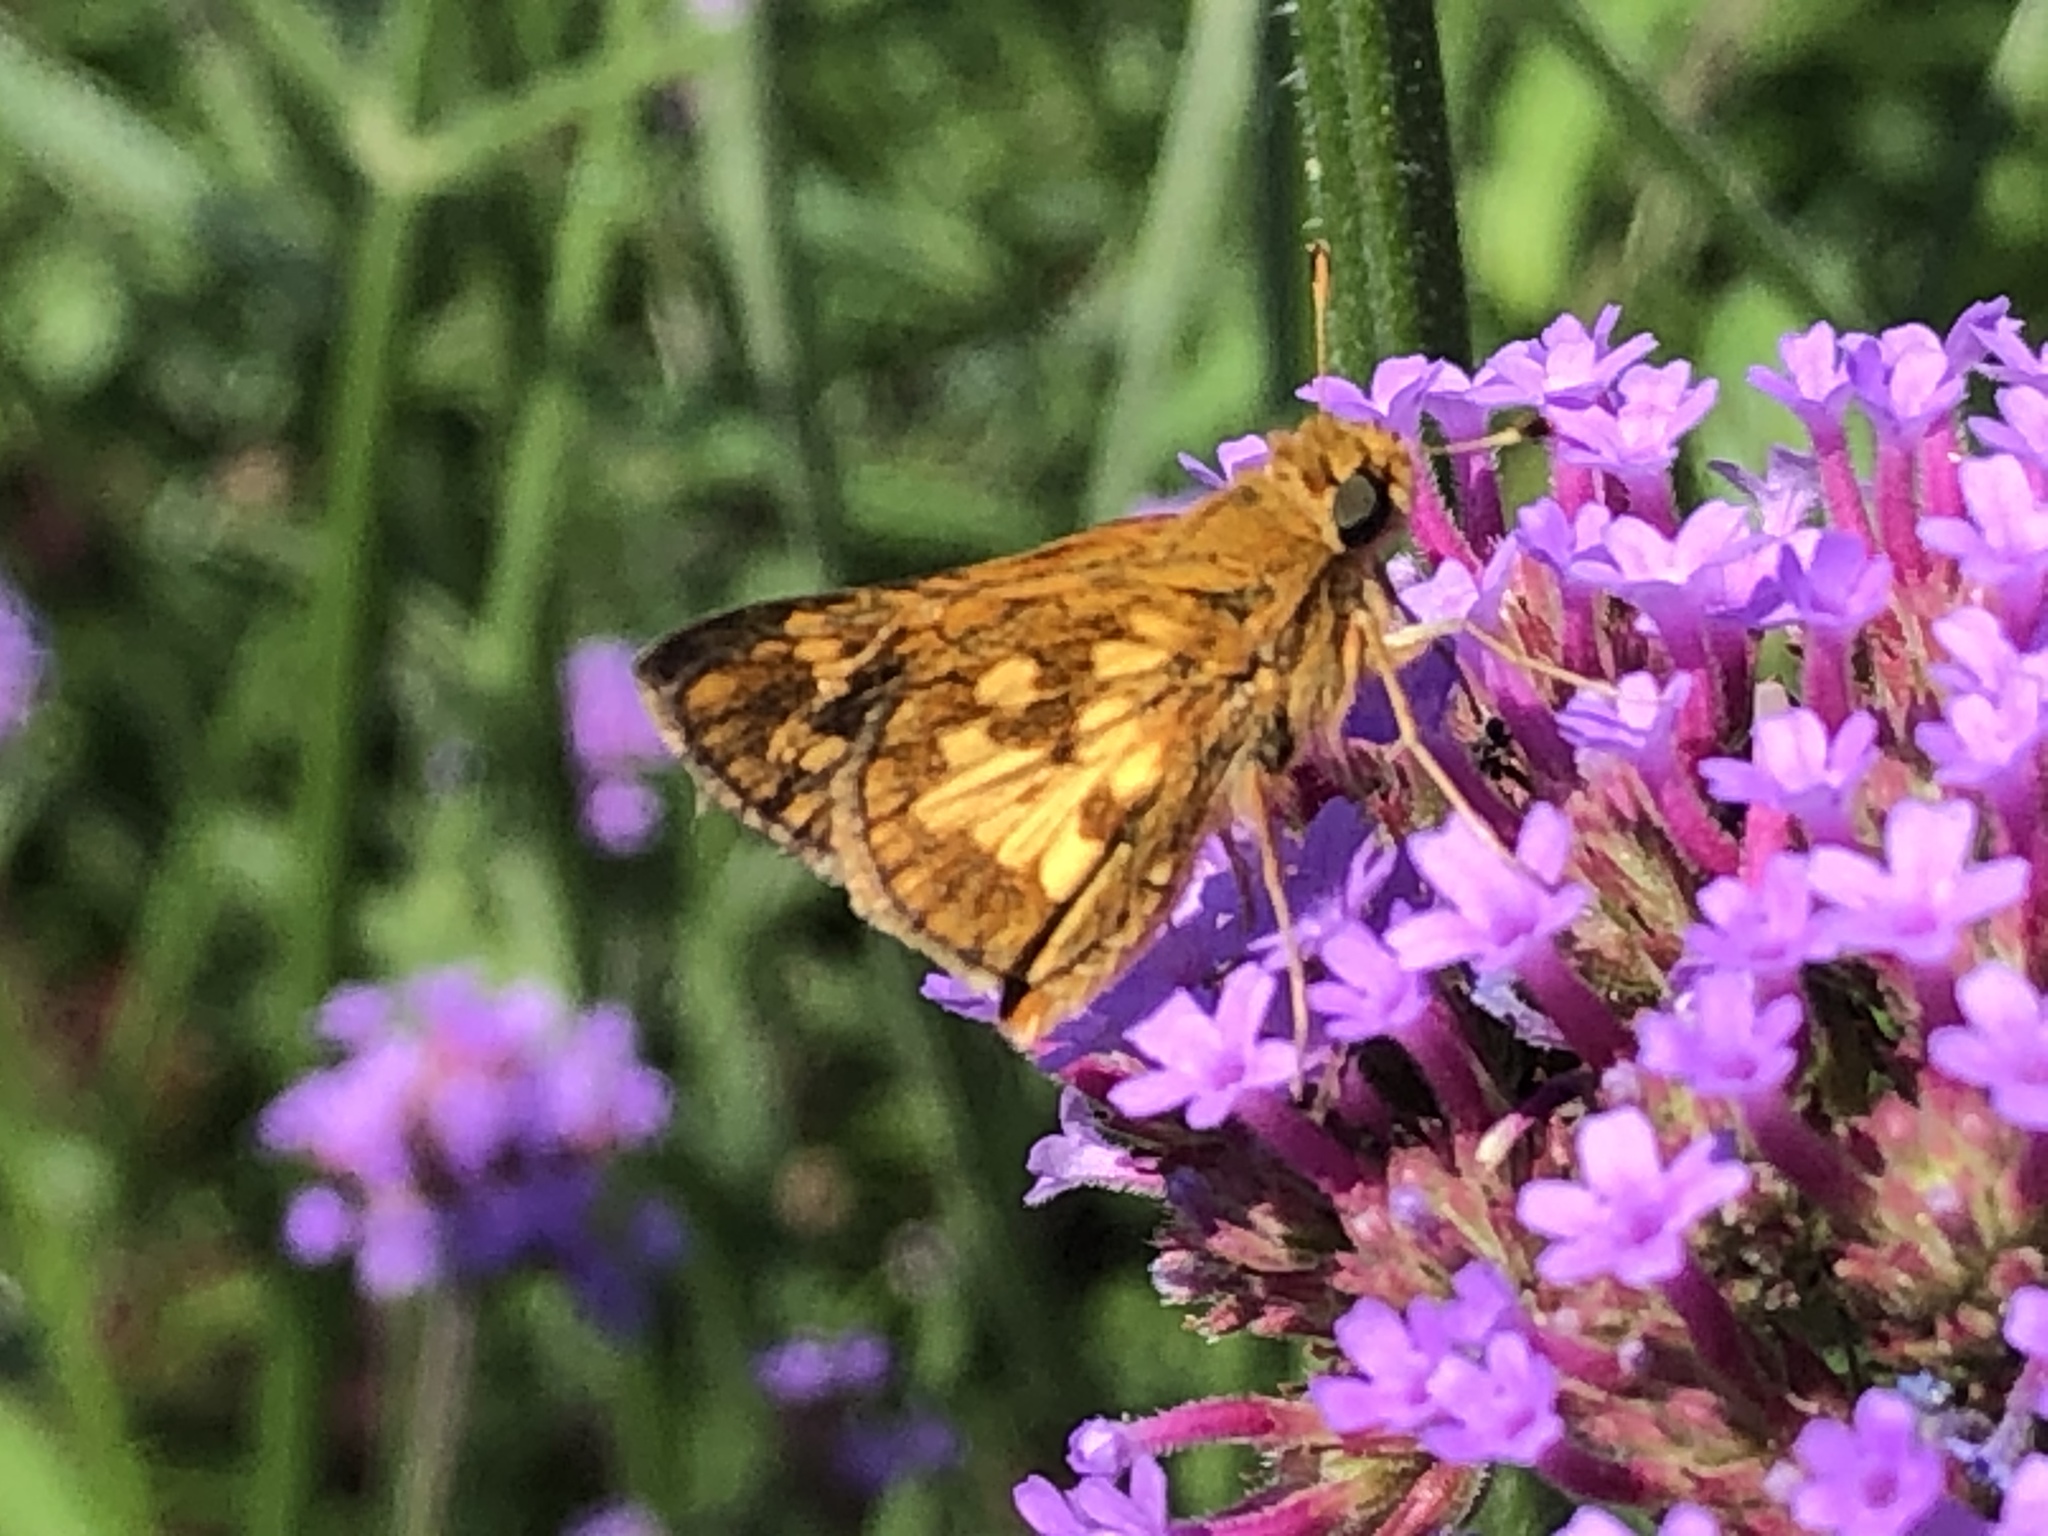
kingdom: Animalia
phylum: Arthropoda
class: Insecta
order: Lepidoptera
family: Hesperiidae
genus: Polites
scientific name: Polites coras
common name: Peck's skipper
